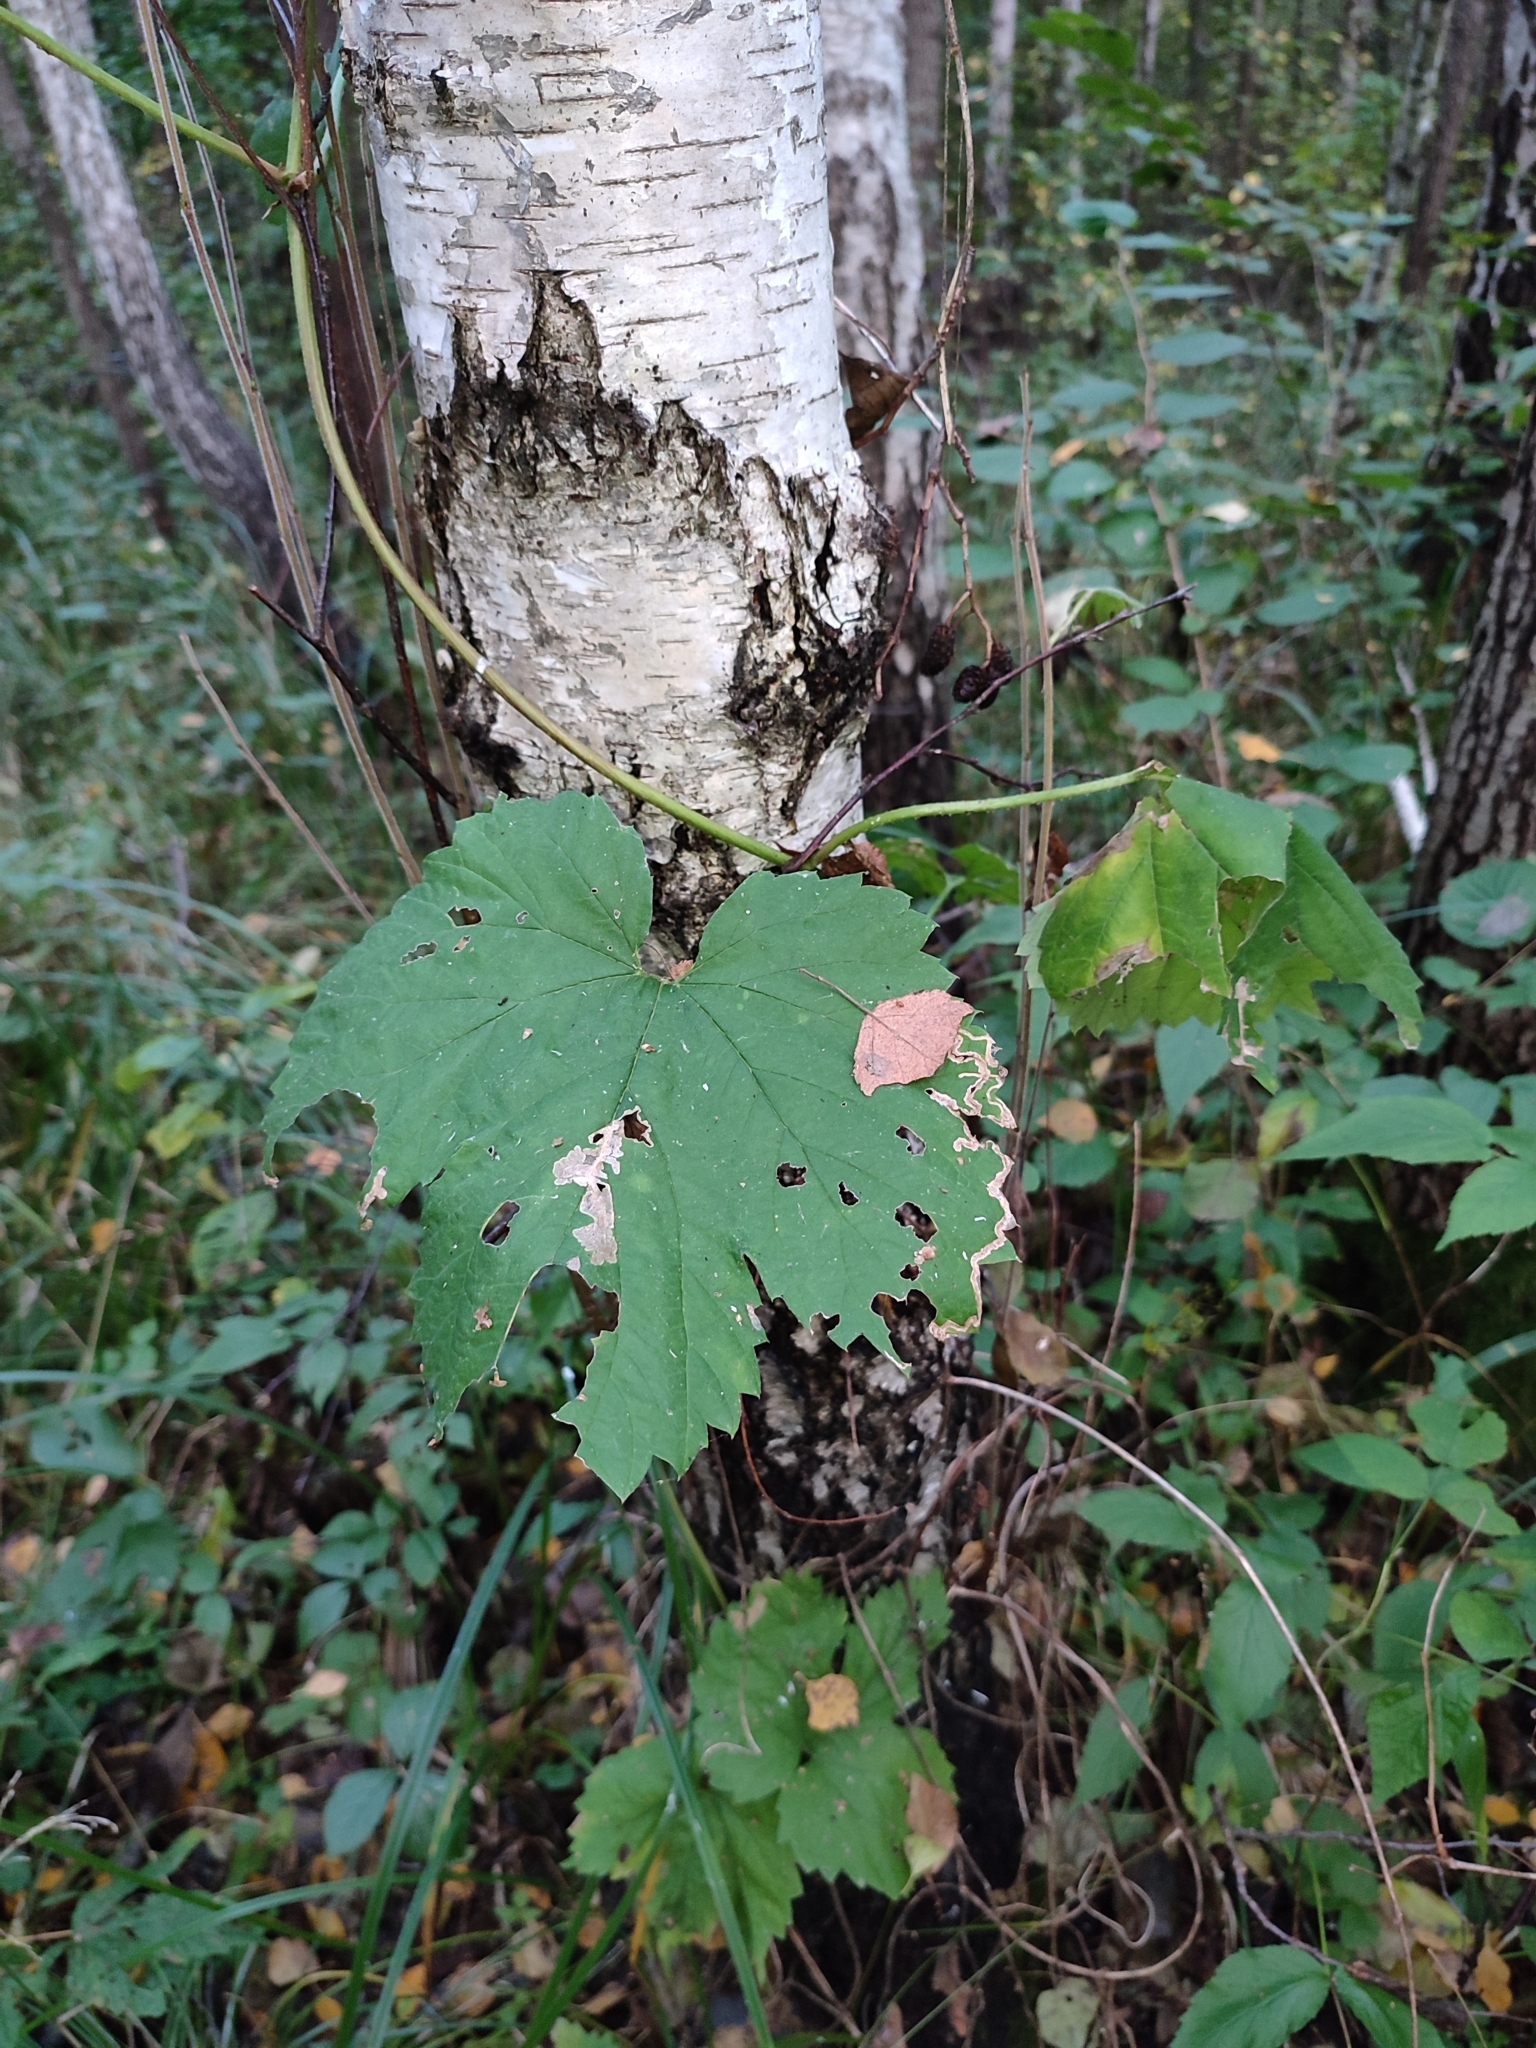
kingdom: Plantae
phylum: Tracheophyta
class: Magnoliopsida
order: Rosales
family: Cannabaceae
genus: Humulus
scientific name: Humulus lupulus
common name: Hop
